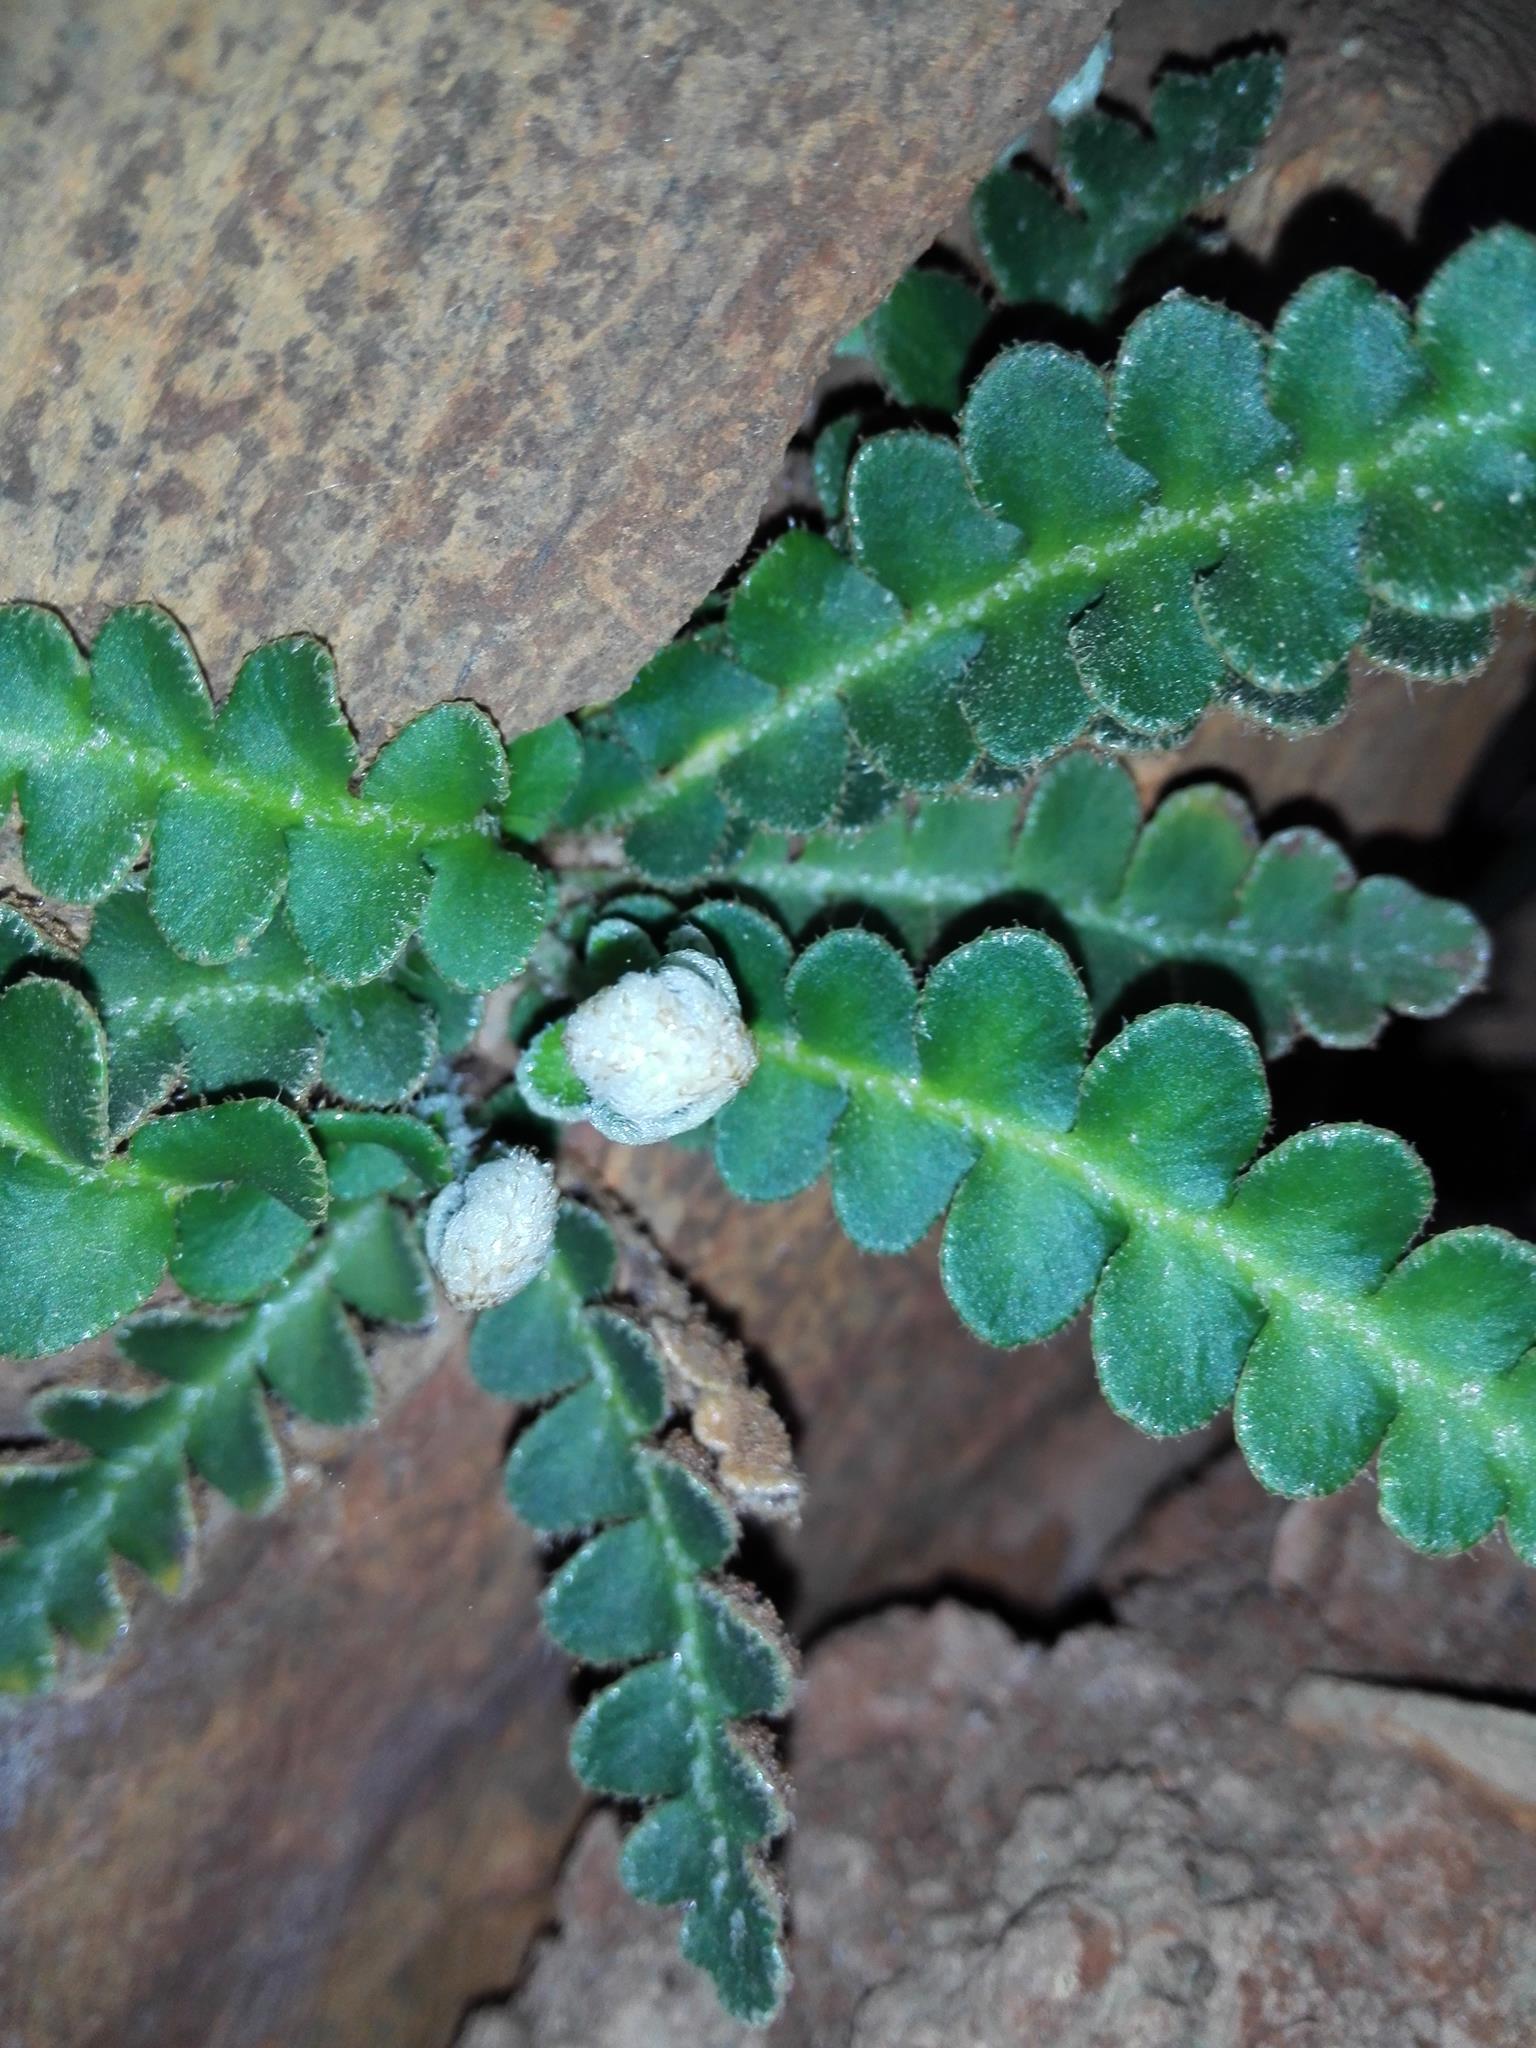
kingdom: Plantae
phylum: Tracheophyta
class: Polypodiopsida
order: Polypodiales
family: Aspleniaceae
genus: Asplenium
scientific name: Asplenium ceterach
